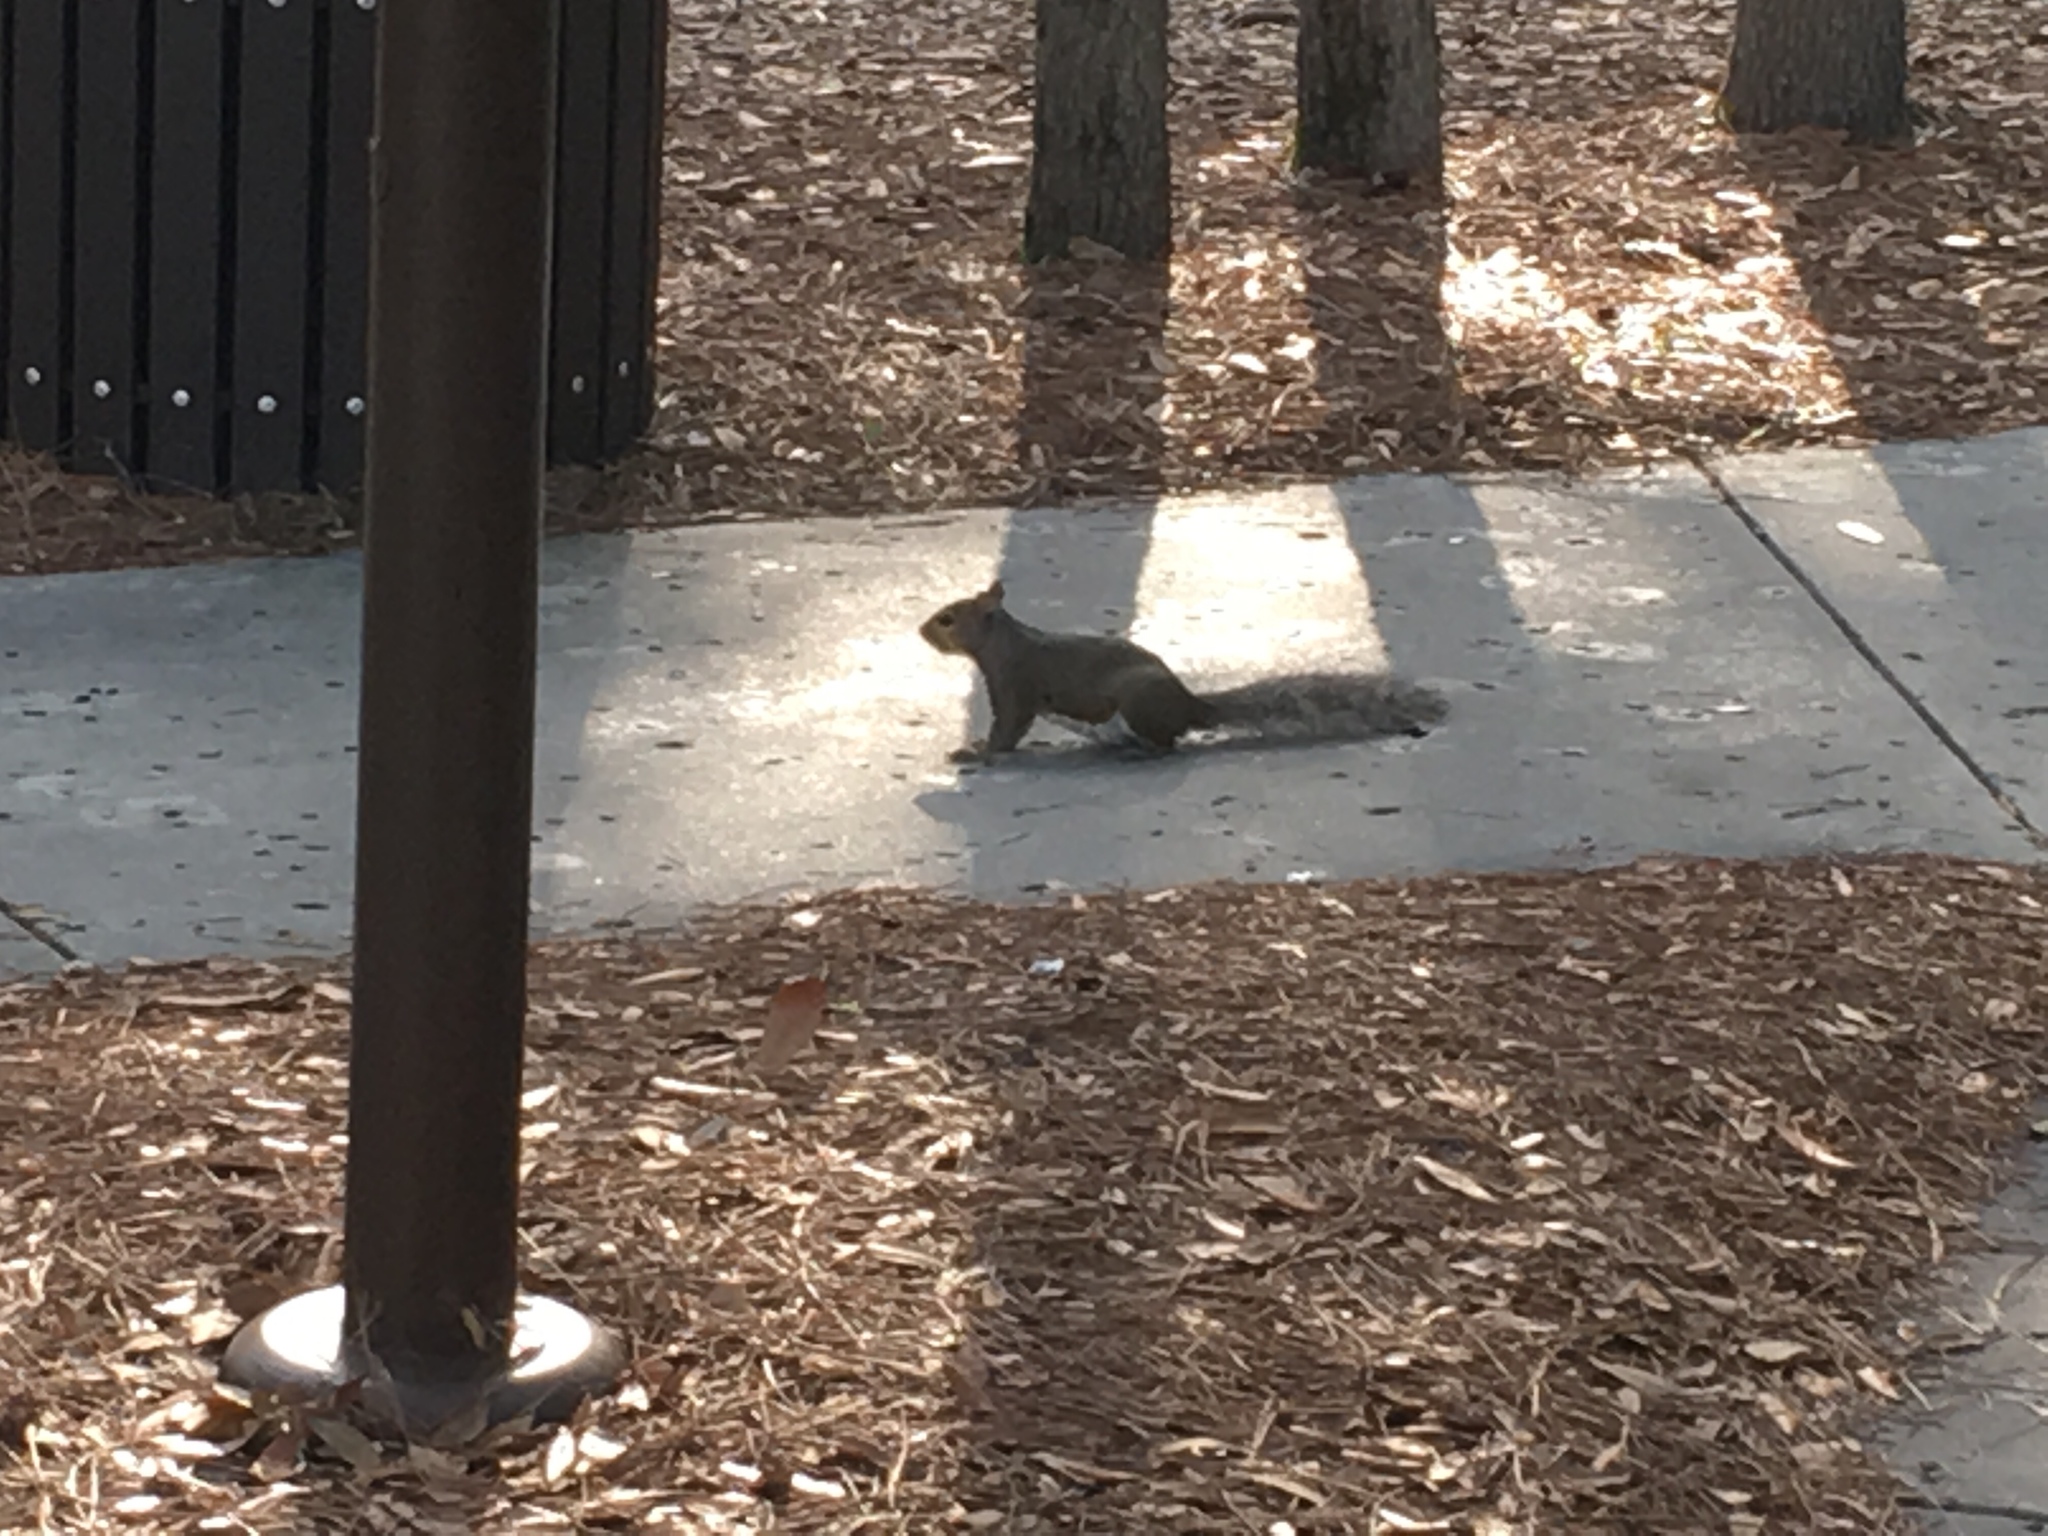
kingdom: Animalia
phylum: Chordata
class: Mammalia
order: Rodentia
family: Sciuridae
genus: Sciurus
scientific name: Sciurus carolinensis
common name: Eastern gray squirrel
